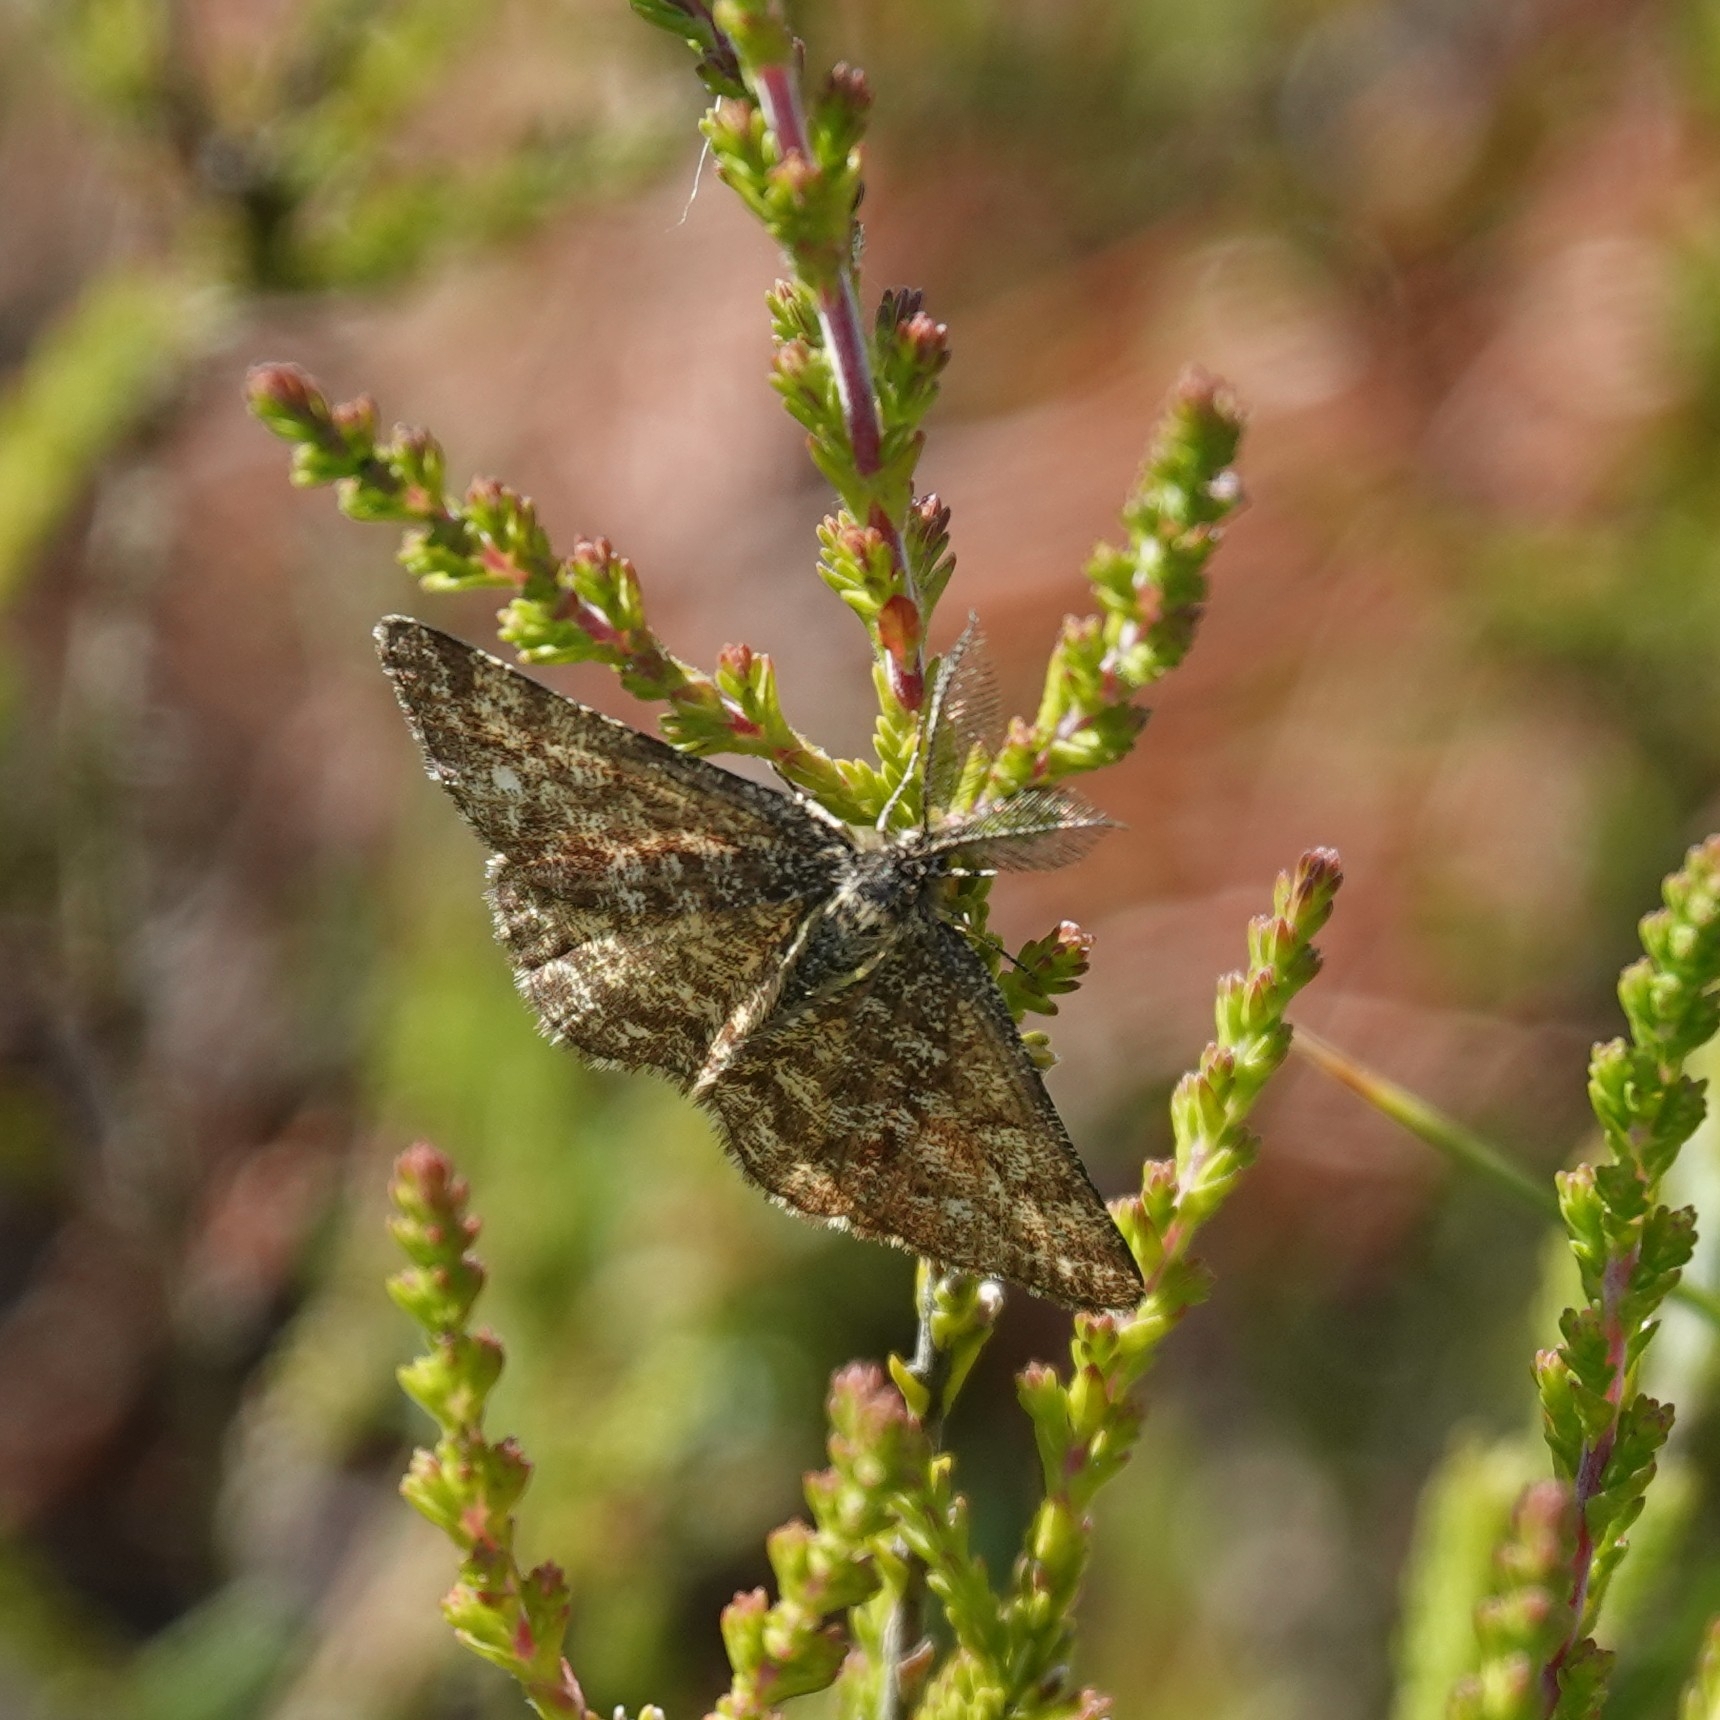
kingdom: Animalia
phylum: Arthropoda
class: Insecta
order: Lepidoptera
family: Geometridae
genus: Ematurga
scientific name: Ematurga atomaria
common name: Common heath
